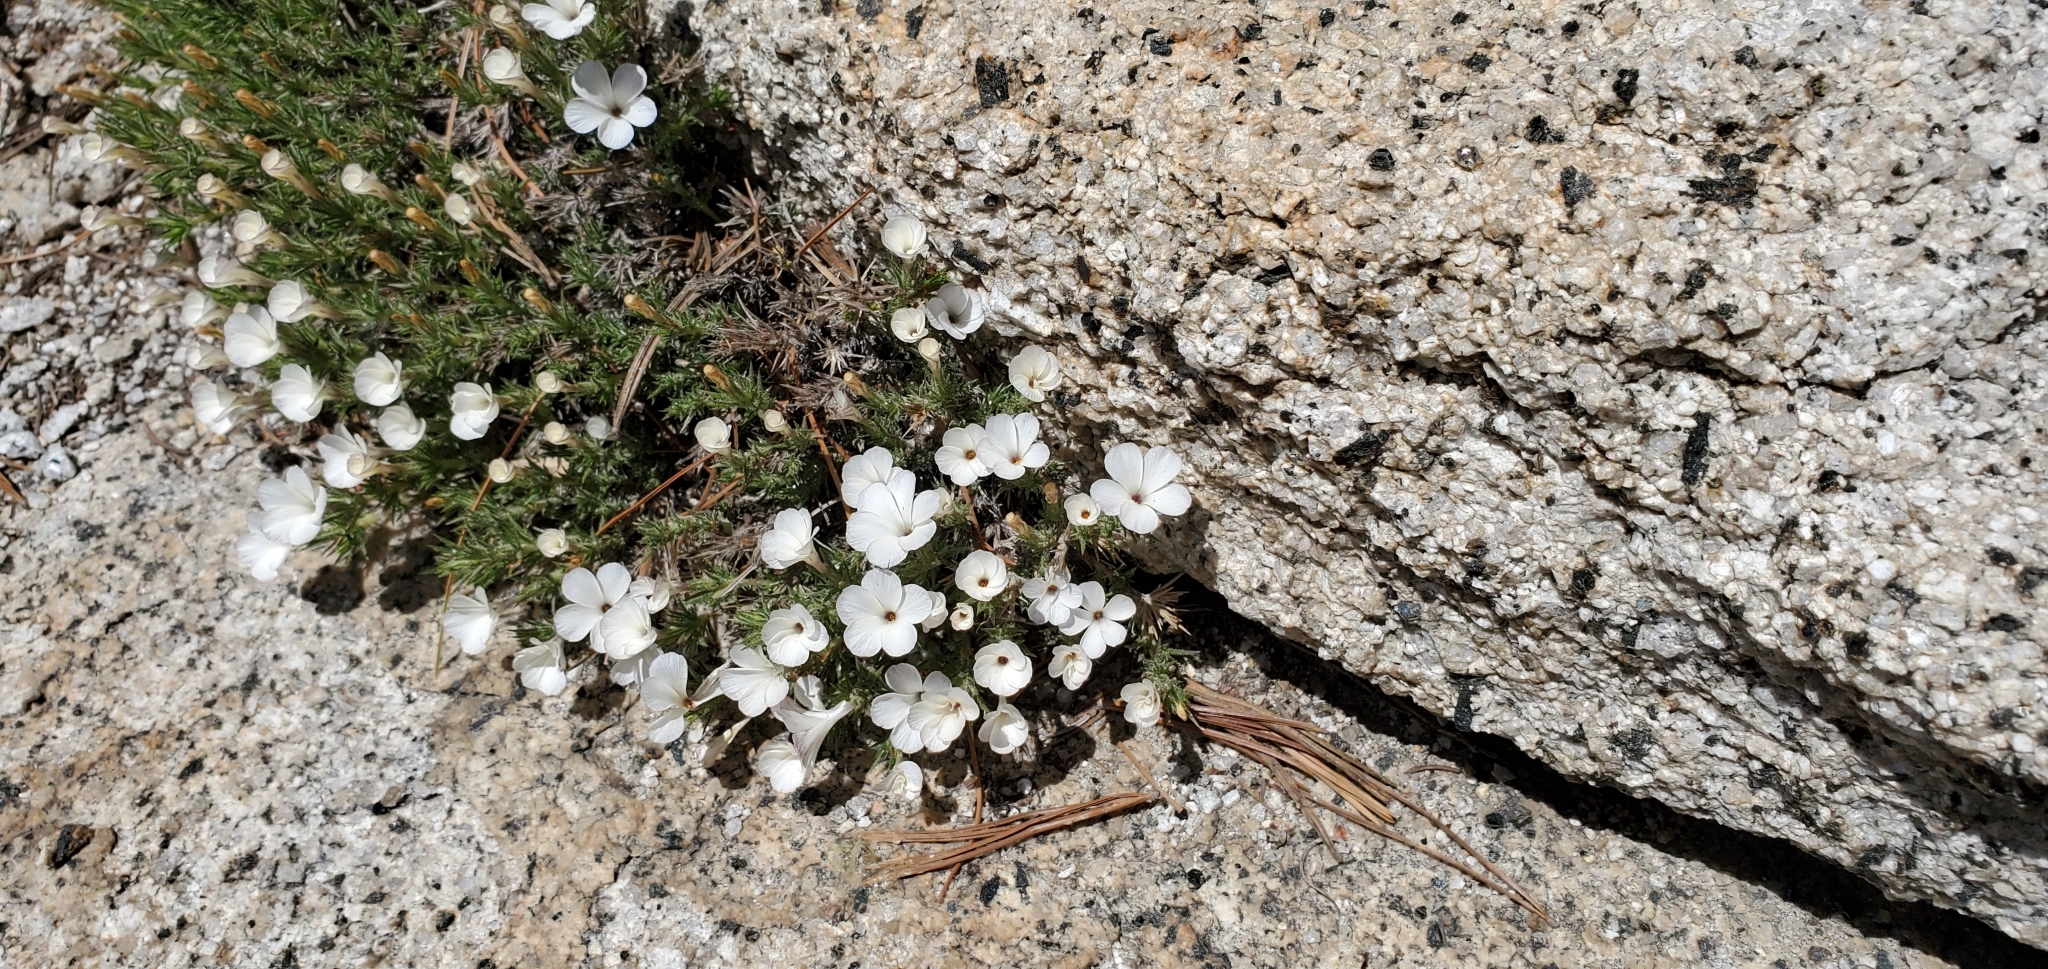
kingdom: Plantae
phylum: Tracheophyta
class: Magnoliopsida
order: Ericales
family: Polemoniaceae
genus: Linanthus
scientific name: Linanthus pungens
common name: Granite prickly phlox
